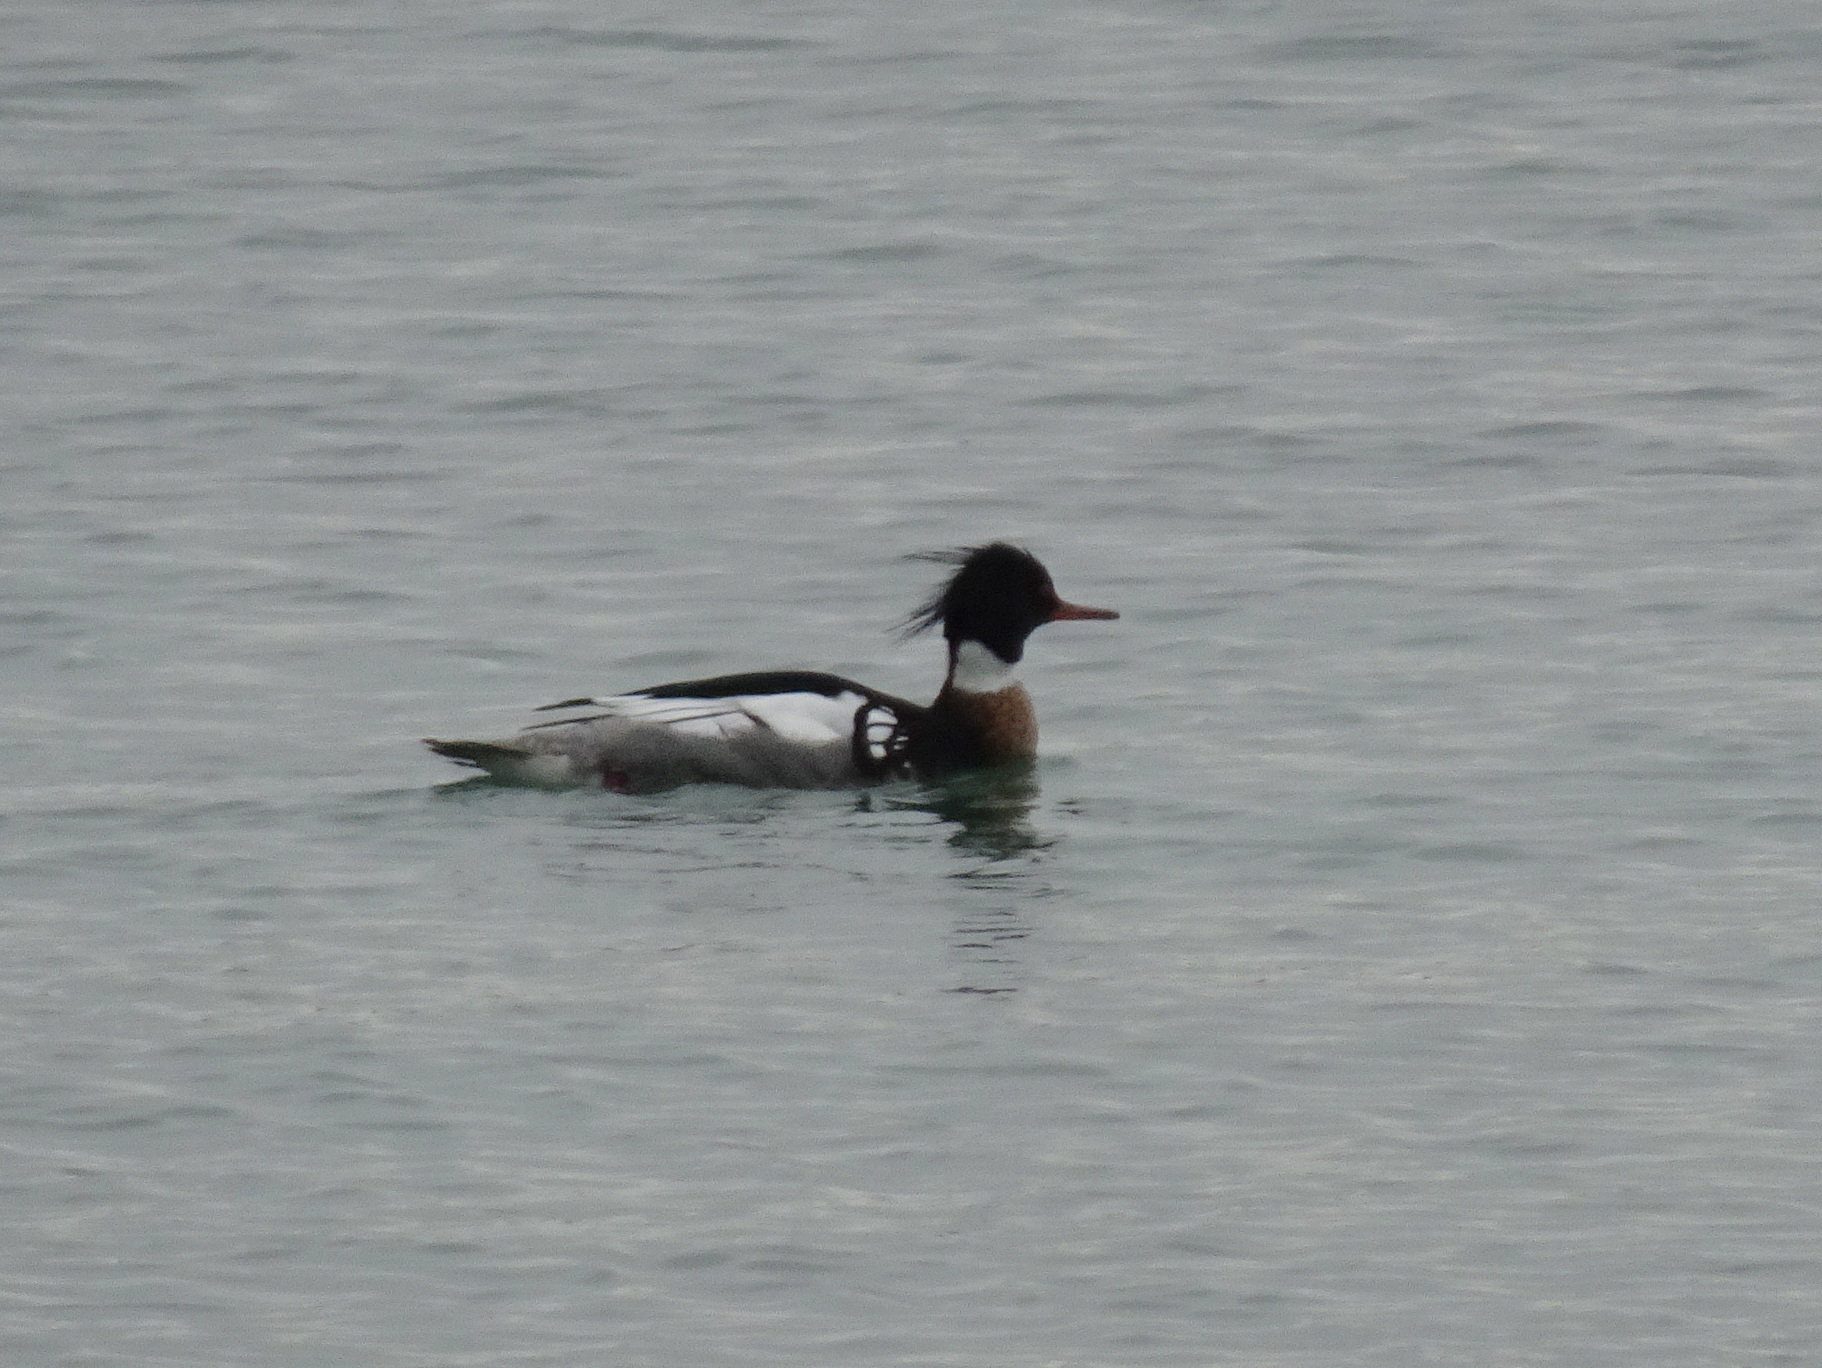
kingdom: Animalia
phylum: Chordata
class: Aves
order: Anseriformes
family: Anatidae
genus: Mergus
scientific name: Mergus serrator
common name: Red-breasted merganser
